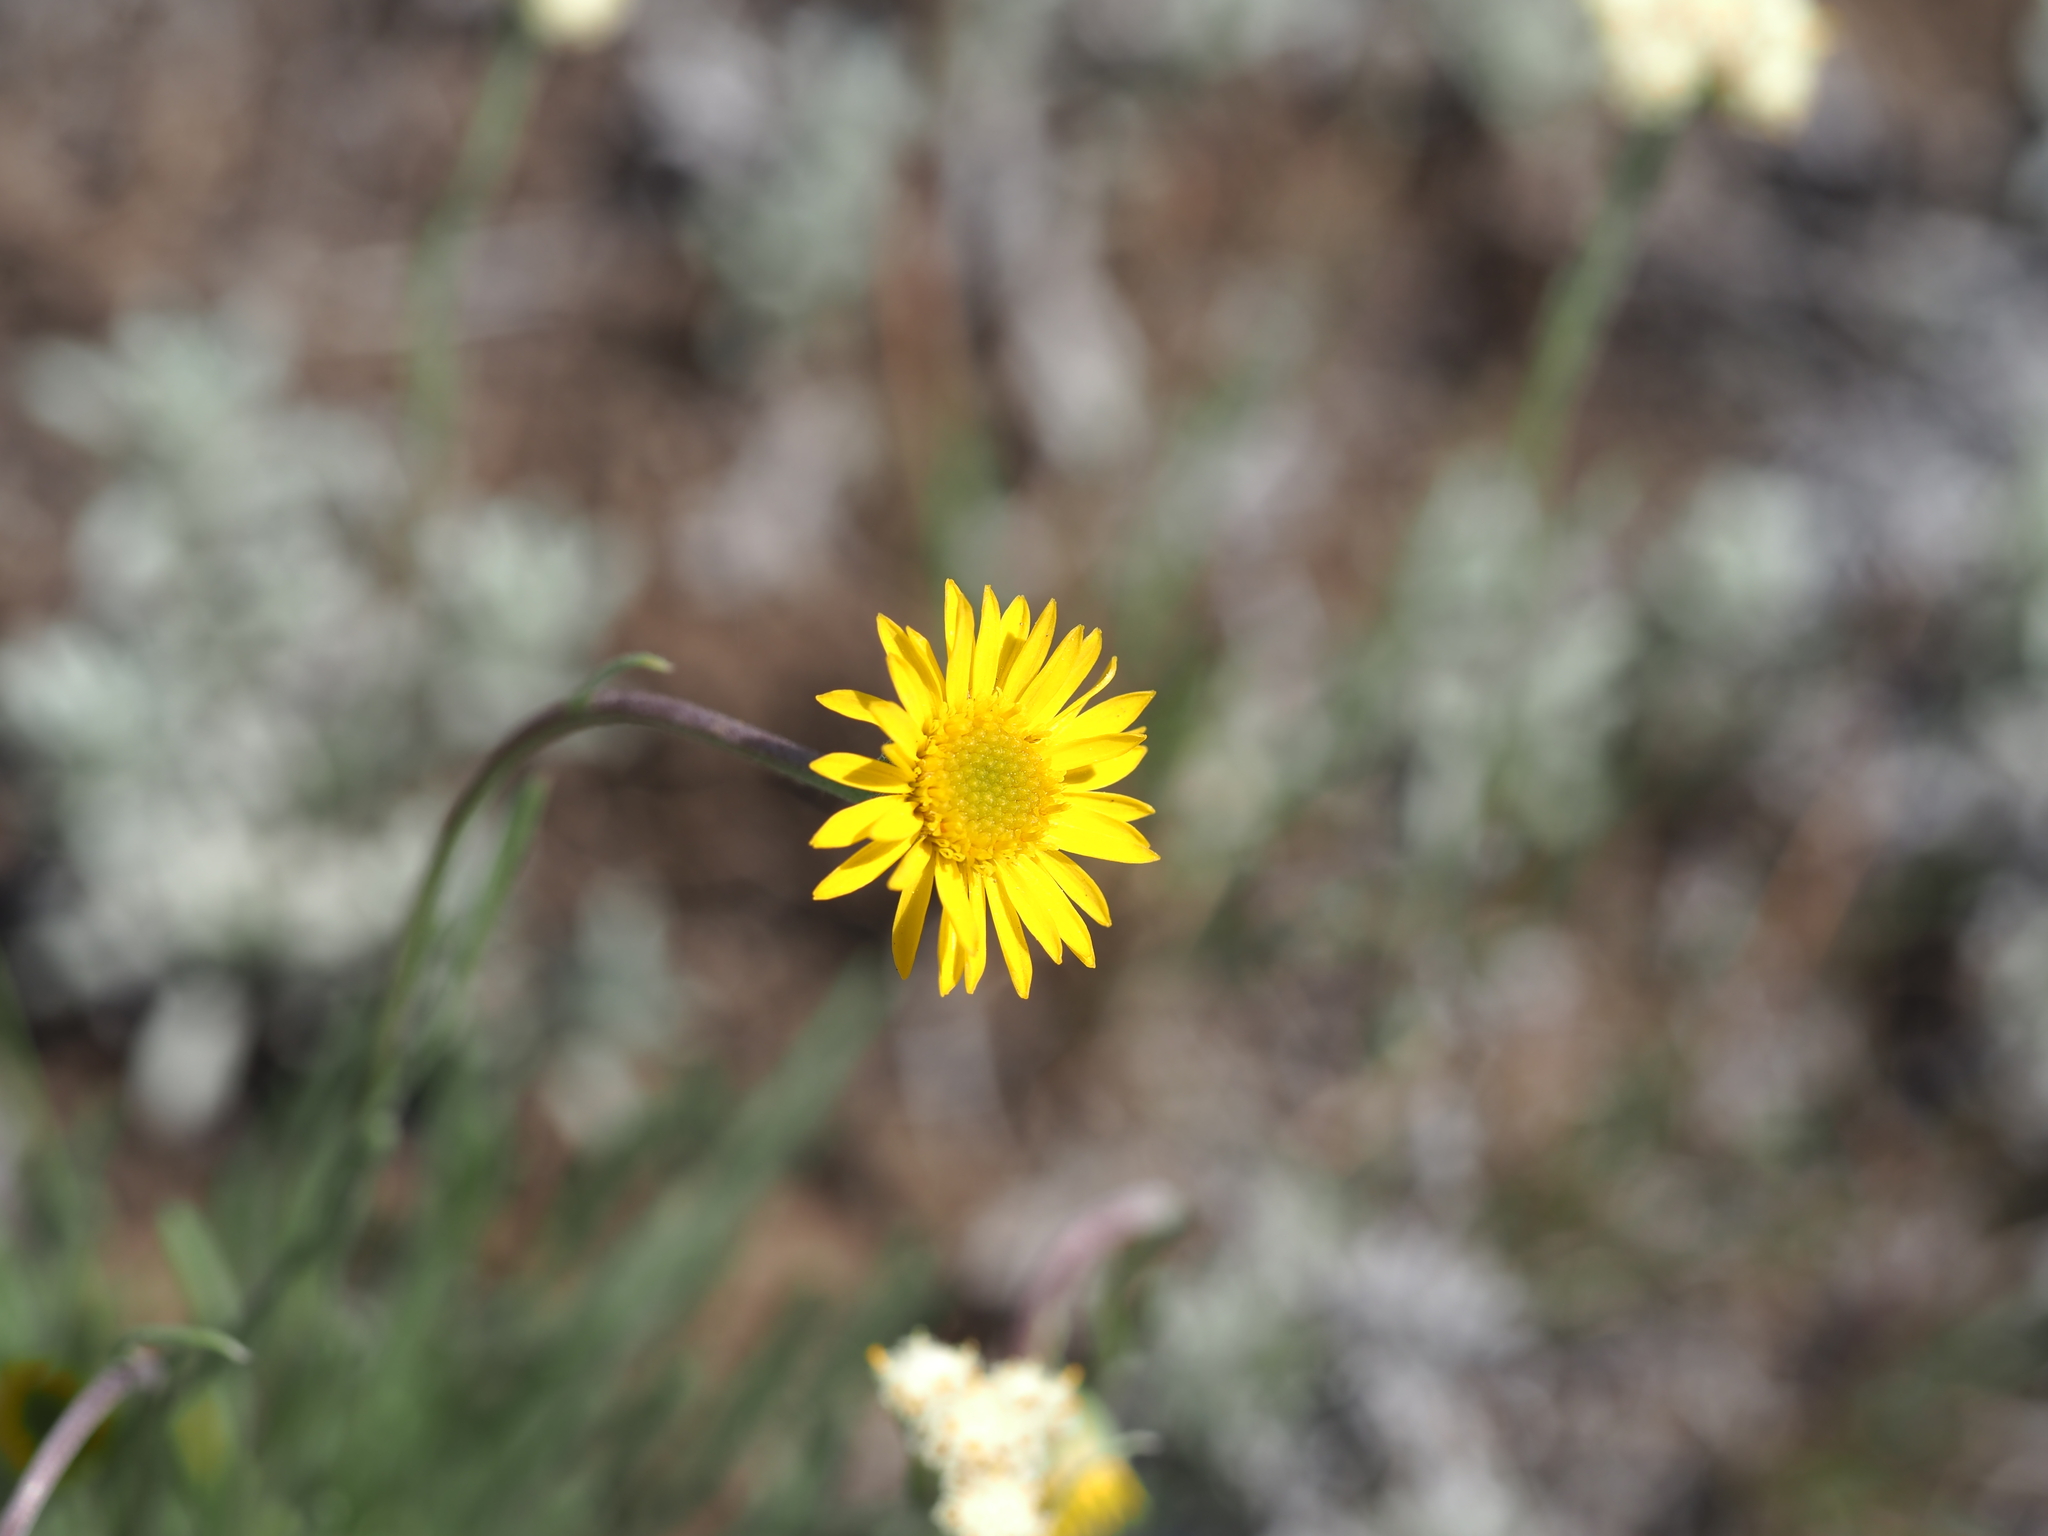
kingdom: Plantae
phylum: Tracheophyta
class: Magnoliopsida
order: Asterales
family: Asteraceae
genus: Erigeron
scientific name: Erigeron linearis
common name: Desert yellow fleabane
